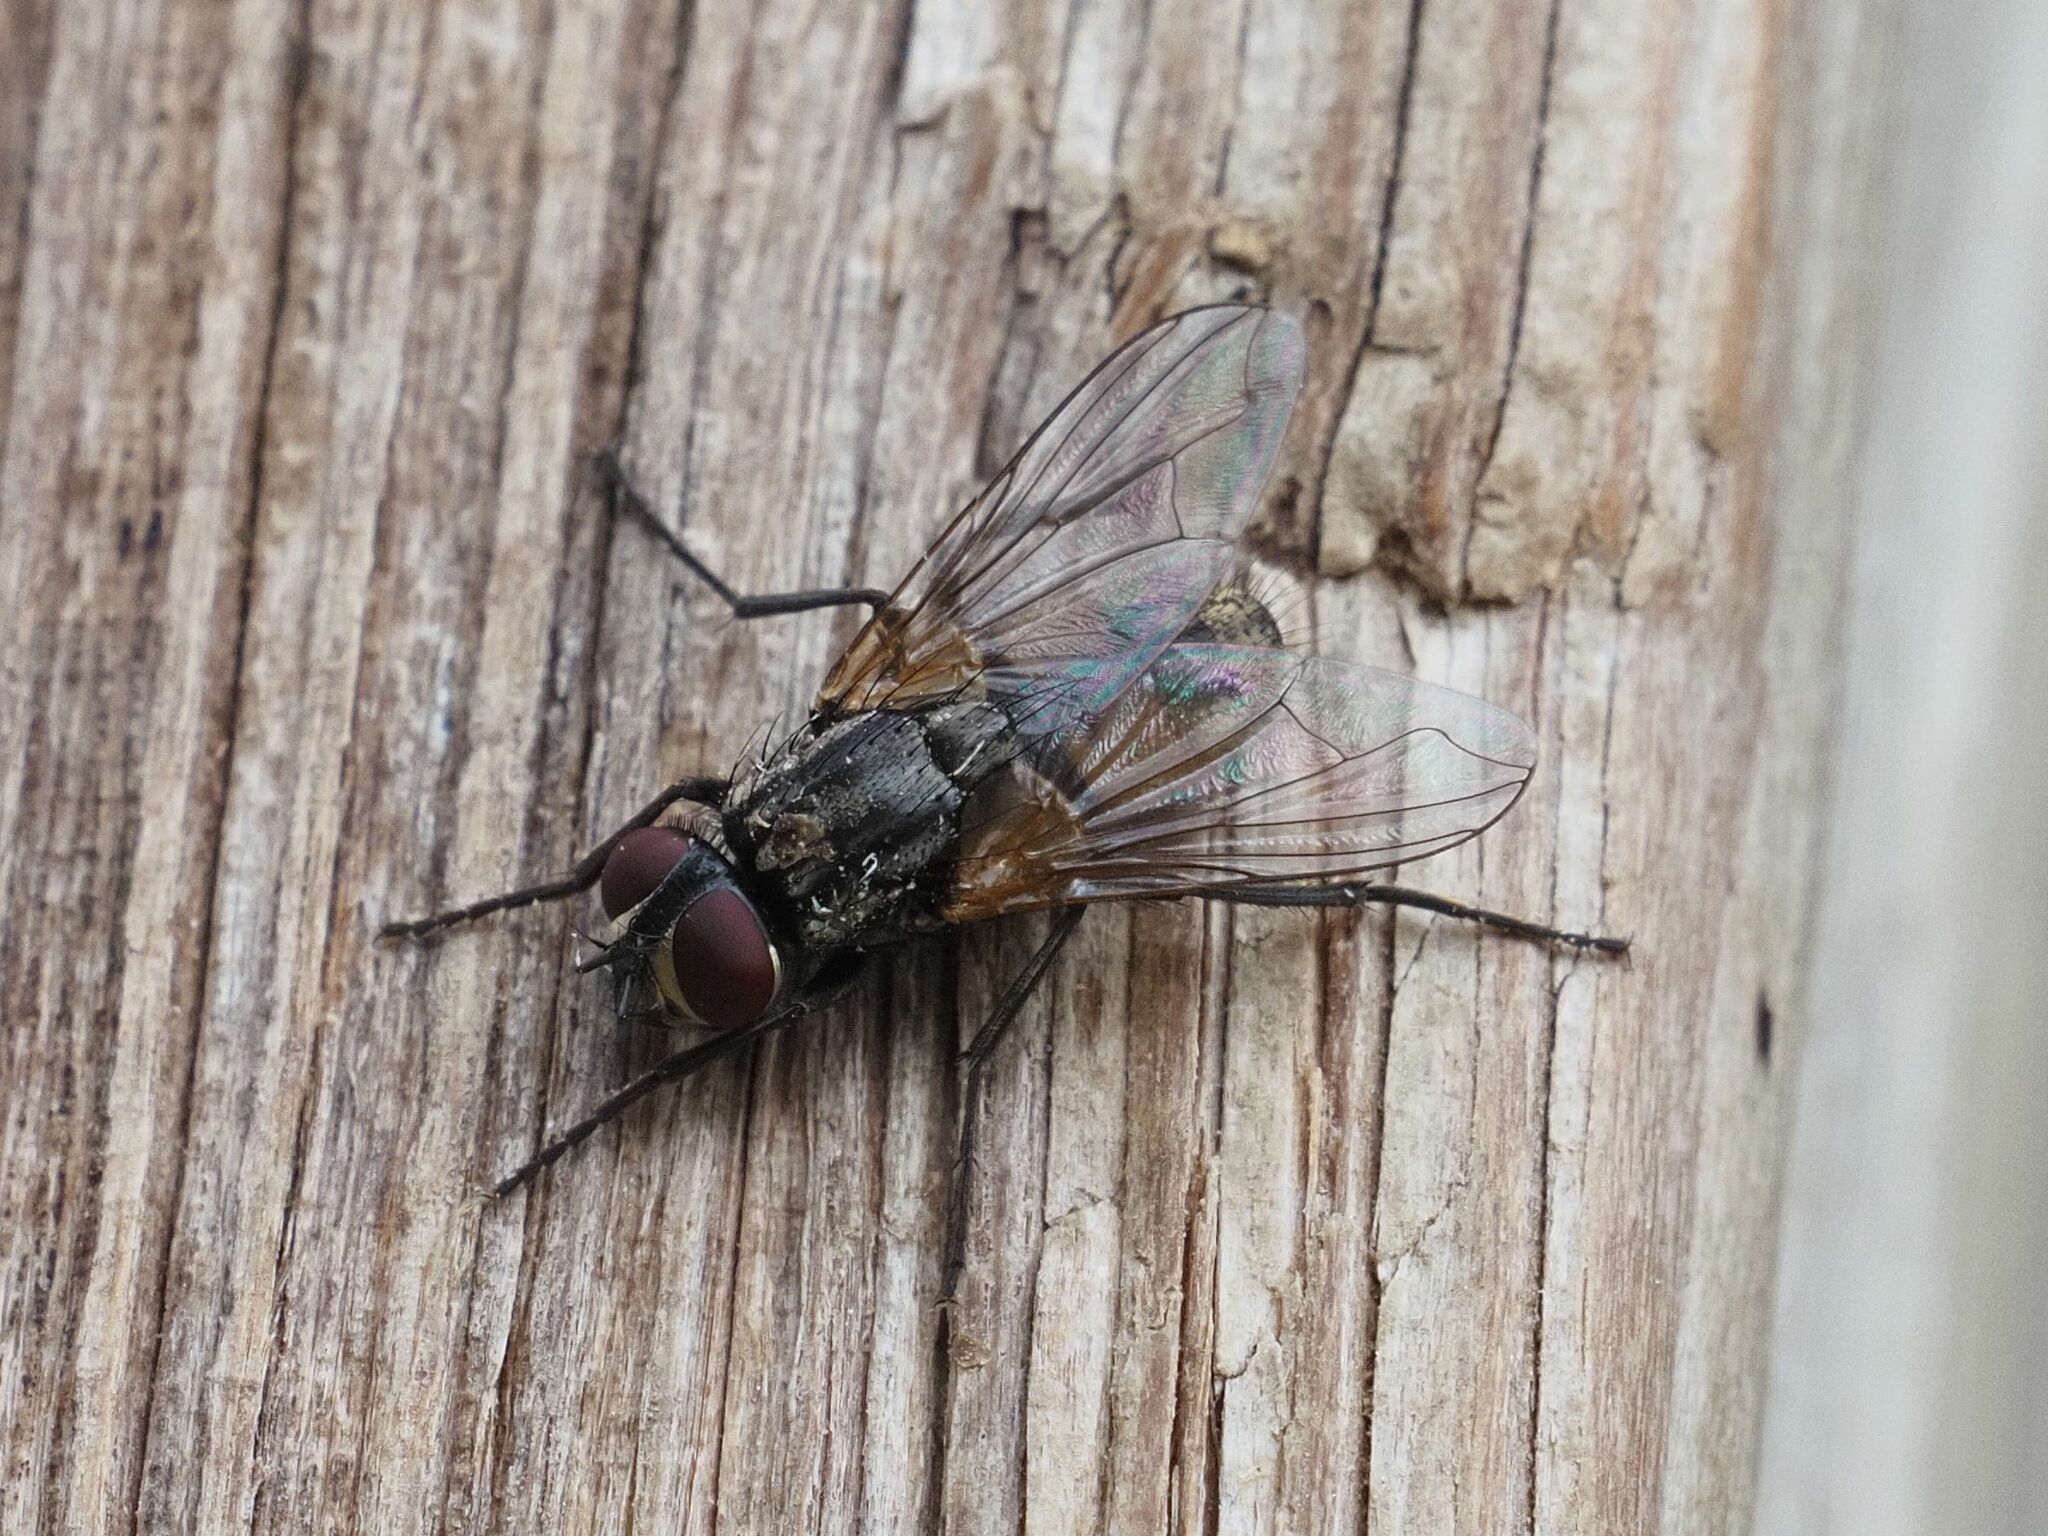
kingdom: Animalia
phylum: Arthropoda
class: Insecta
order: Diptera
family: Muscidae
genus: Musca
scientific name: Musca domestica
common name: House fly
